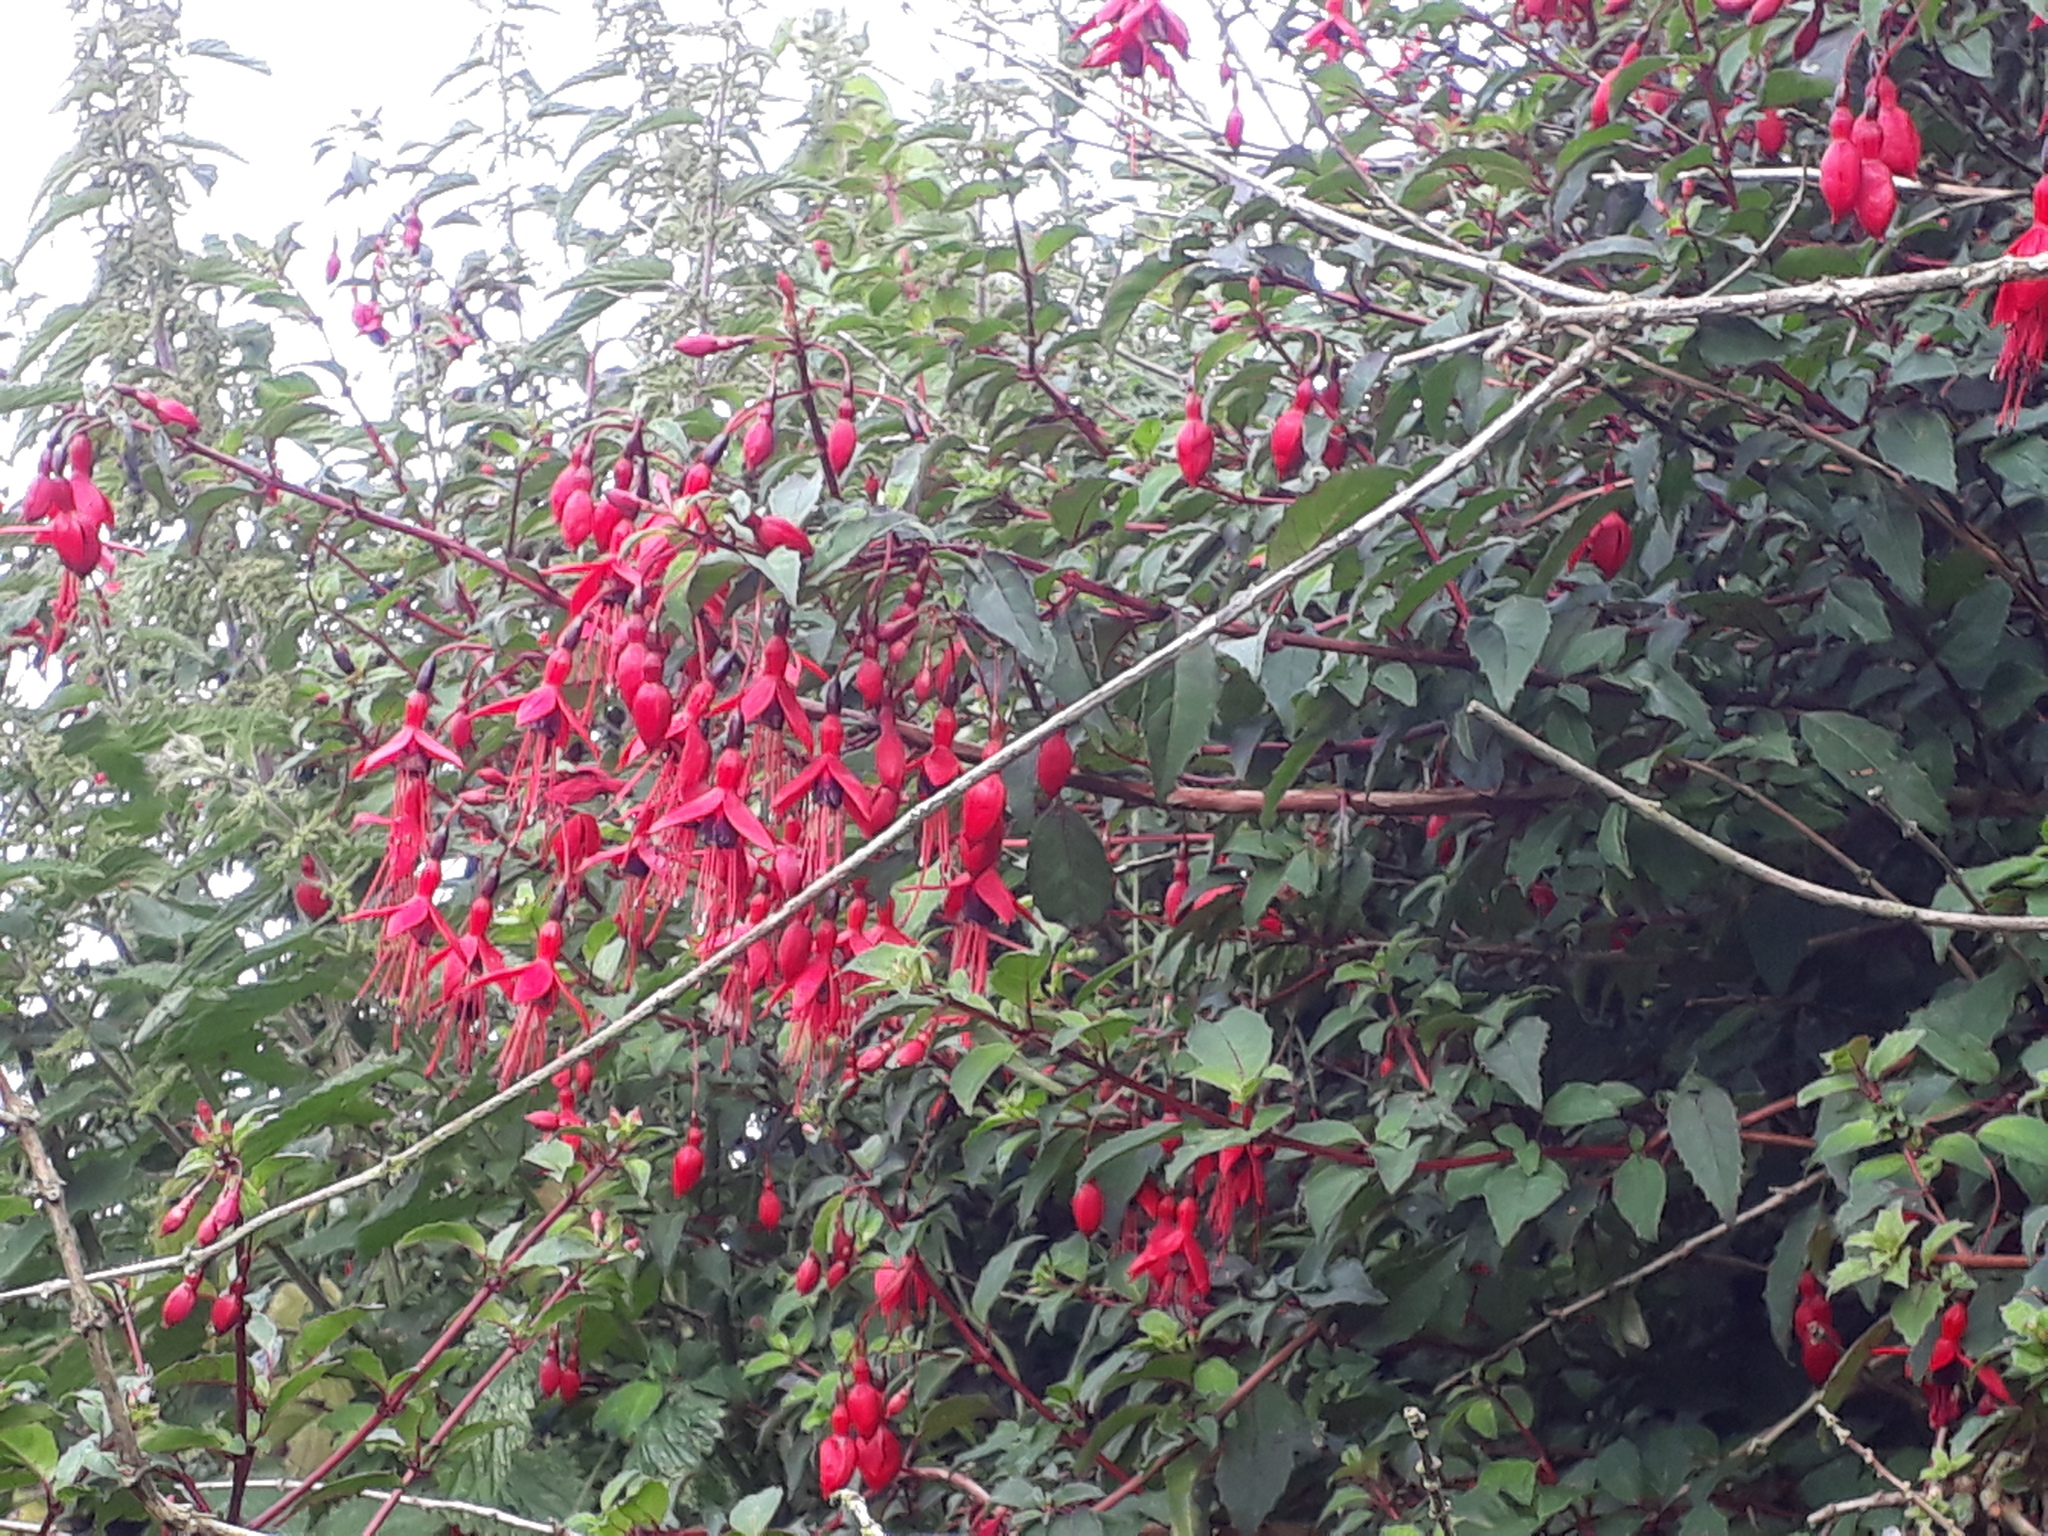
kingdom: Plantae
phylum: Tracheophyta
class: Magnoliopsida
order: Myrtales
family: Onagraceae
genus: Fuchsia
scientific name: Fuchsia magellanica
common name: Hardy fuchsia
